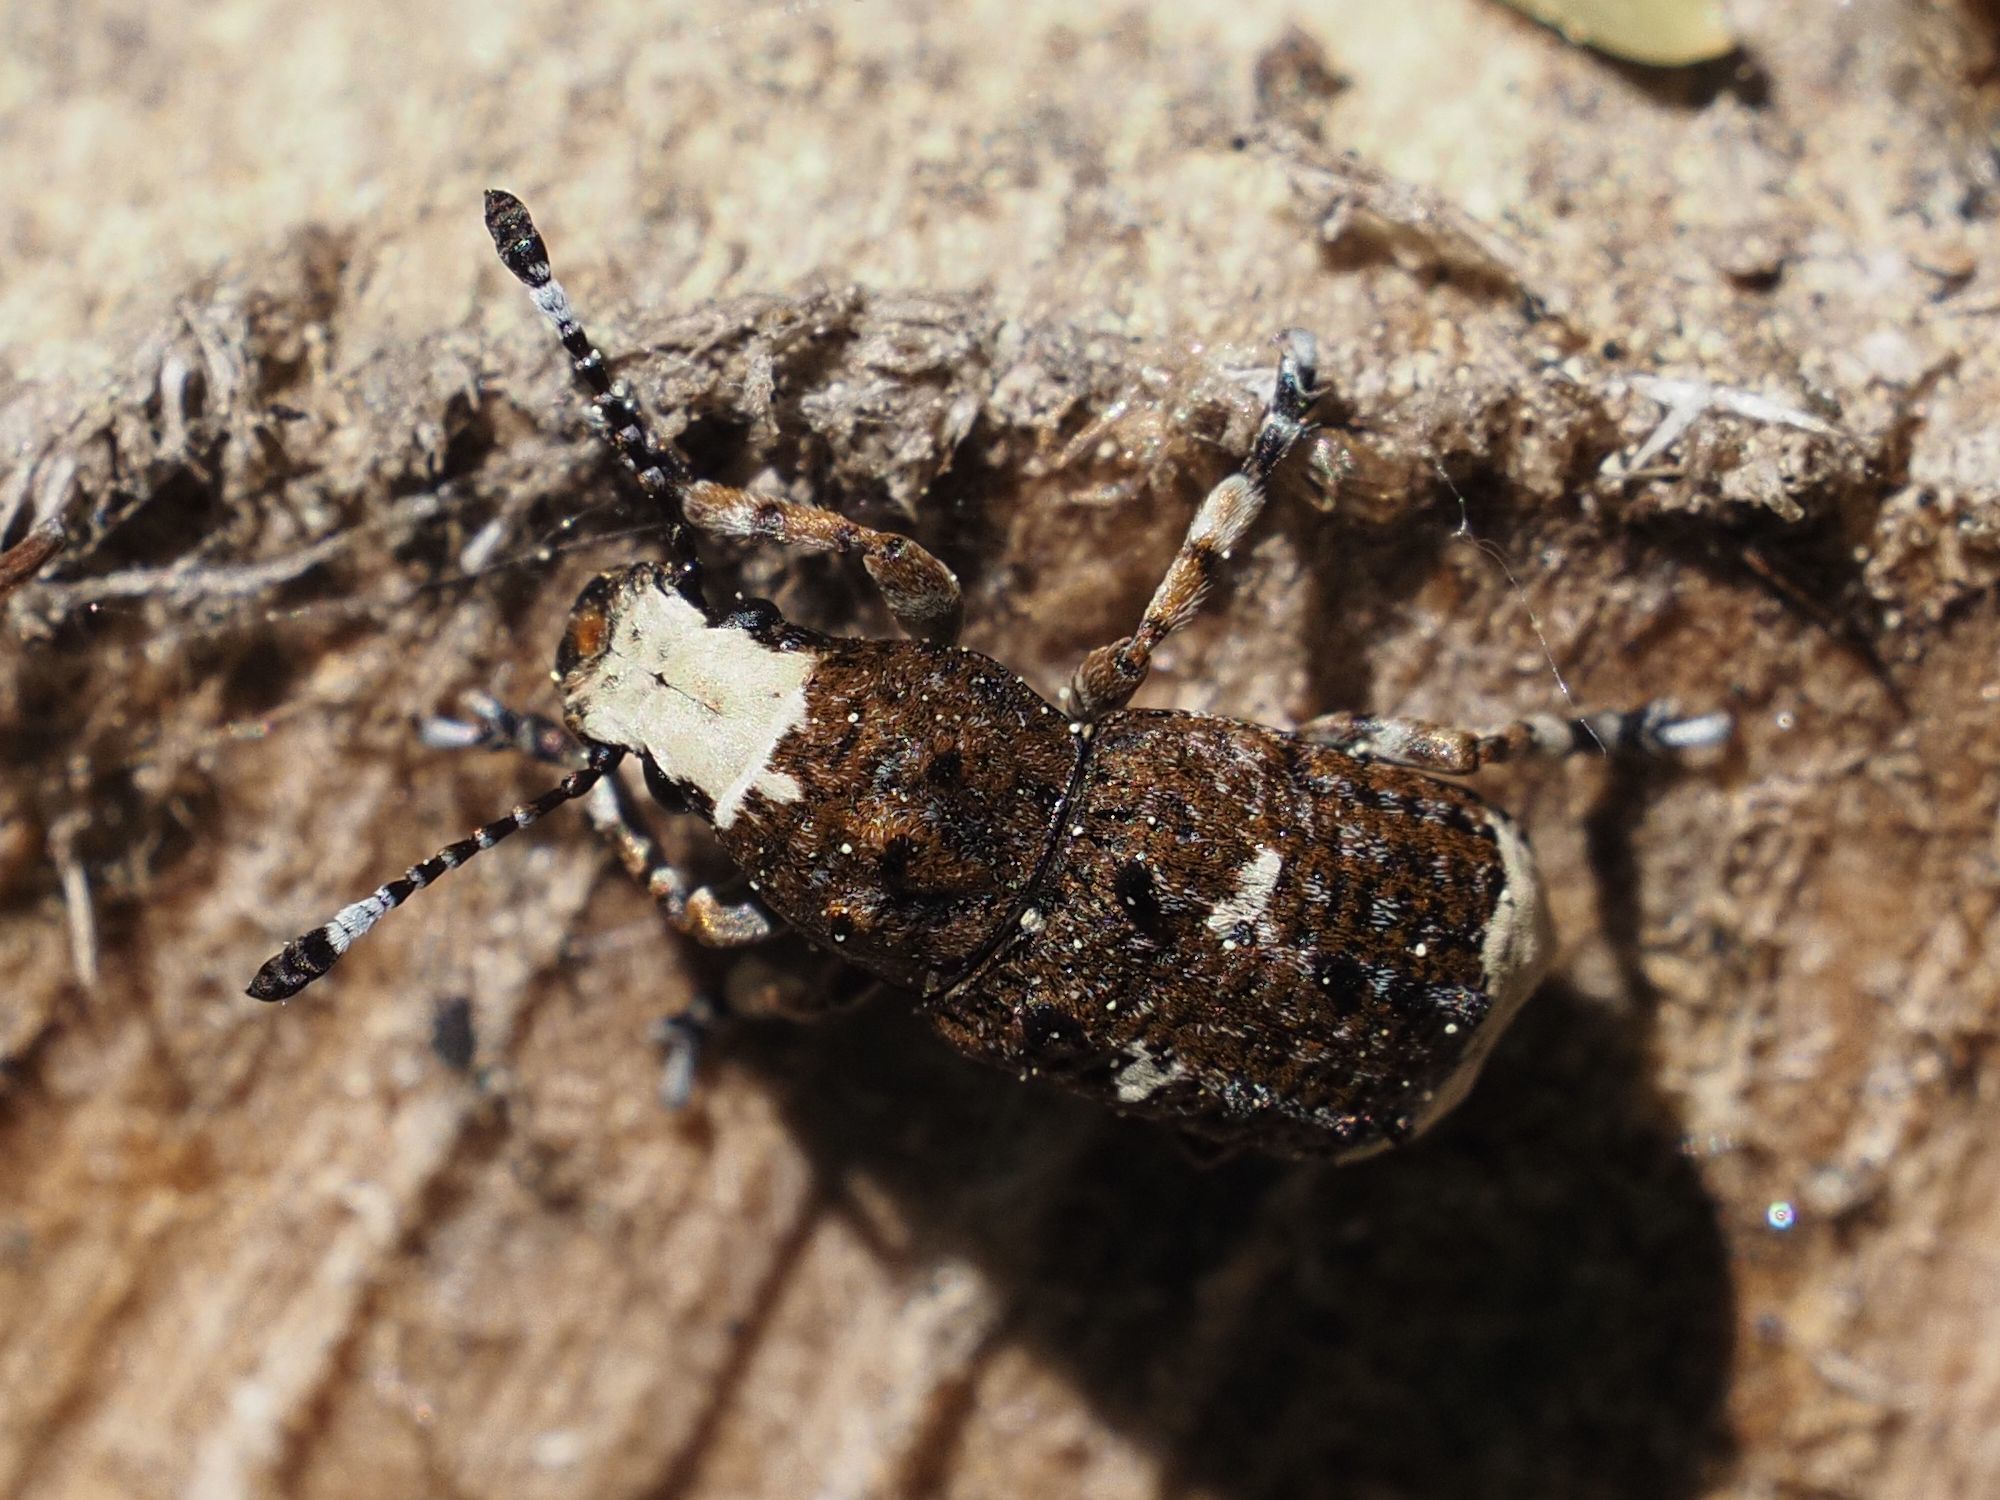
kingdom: Animalia
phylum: Arthropoda
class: Insecta
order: Coleoptera
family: Anthribidae
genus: Platystomos
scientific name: Platystomos albinus
